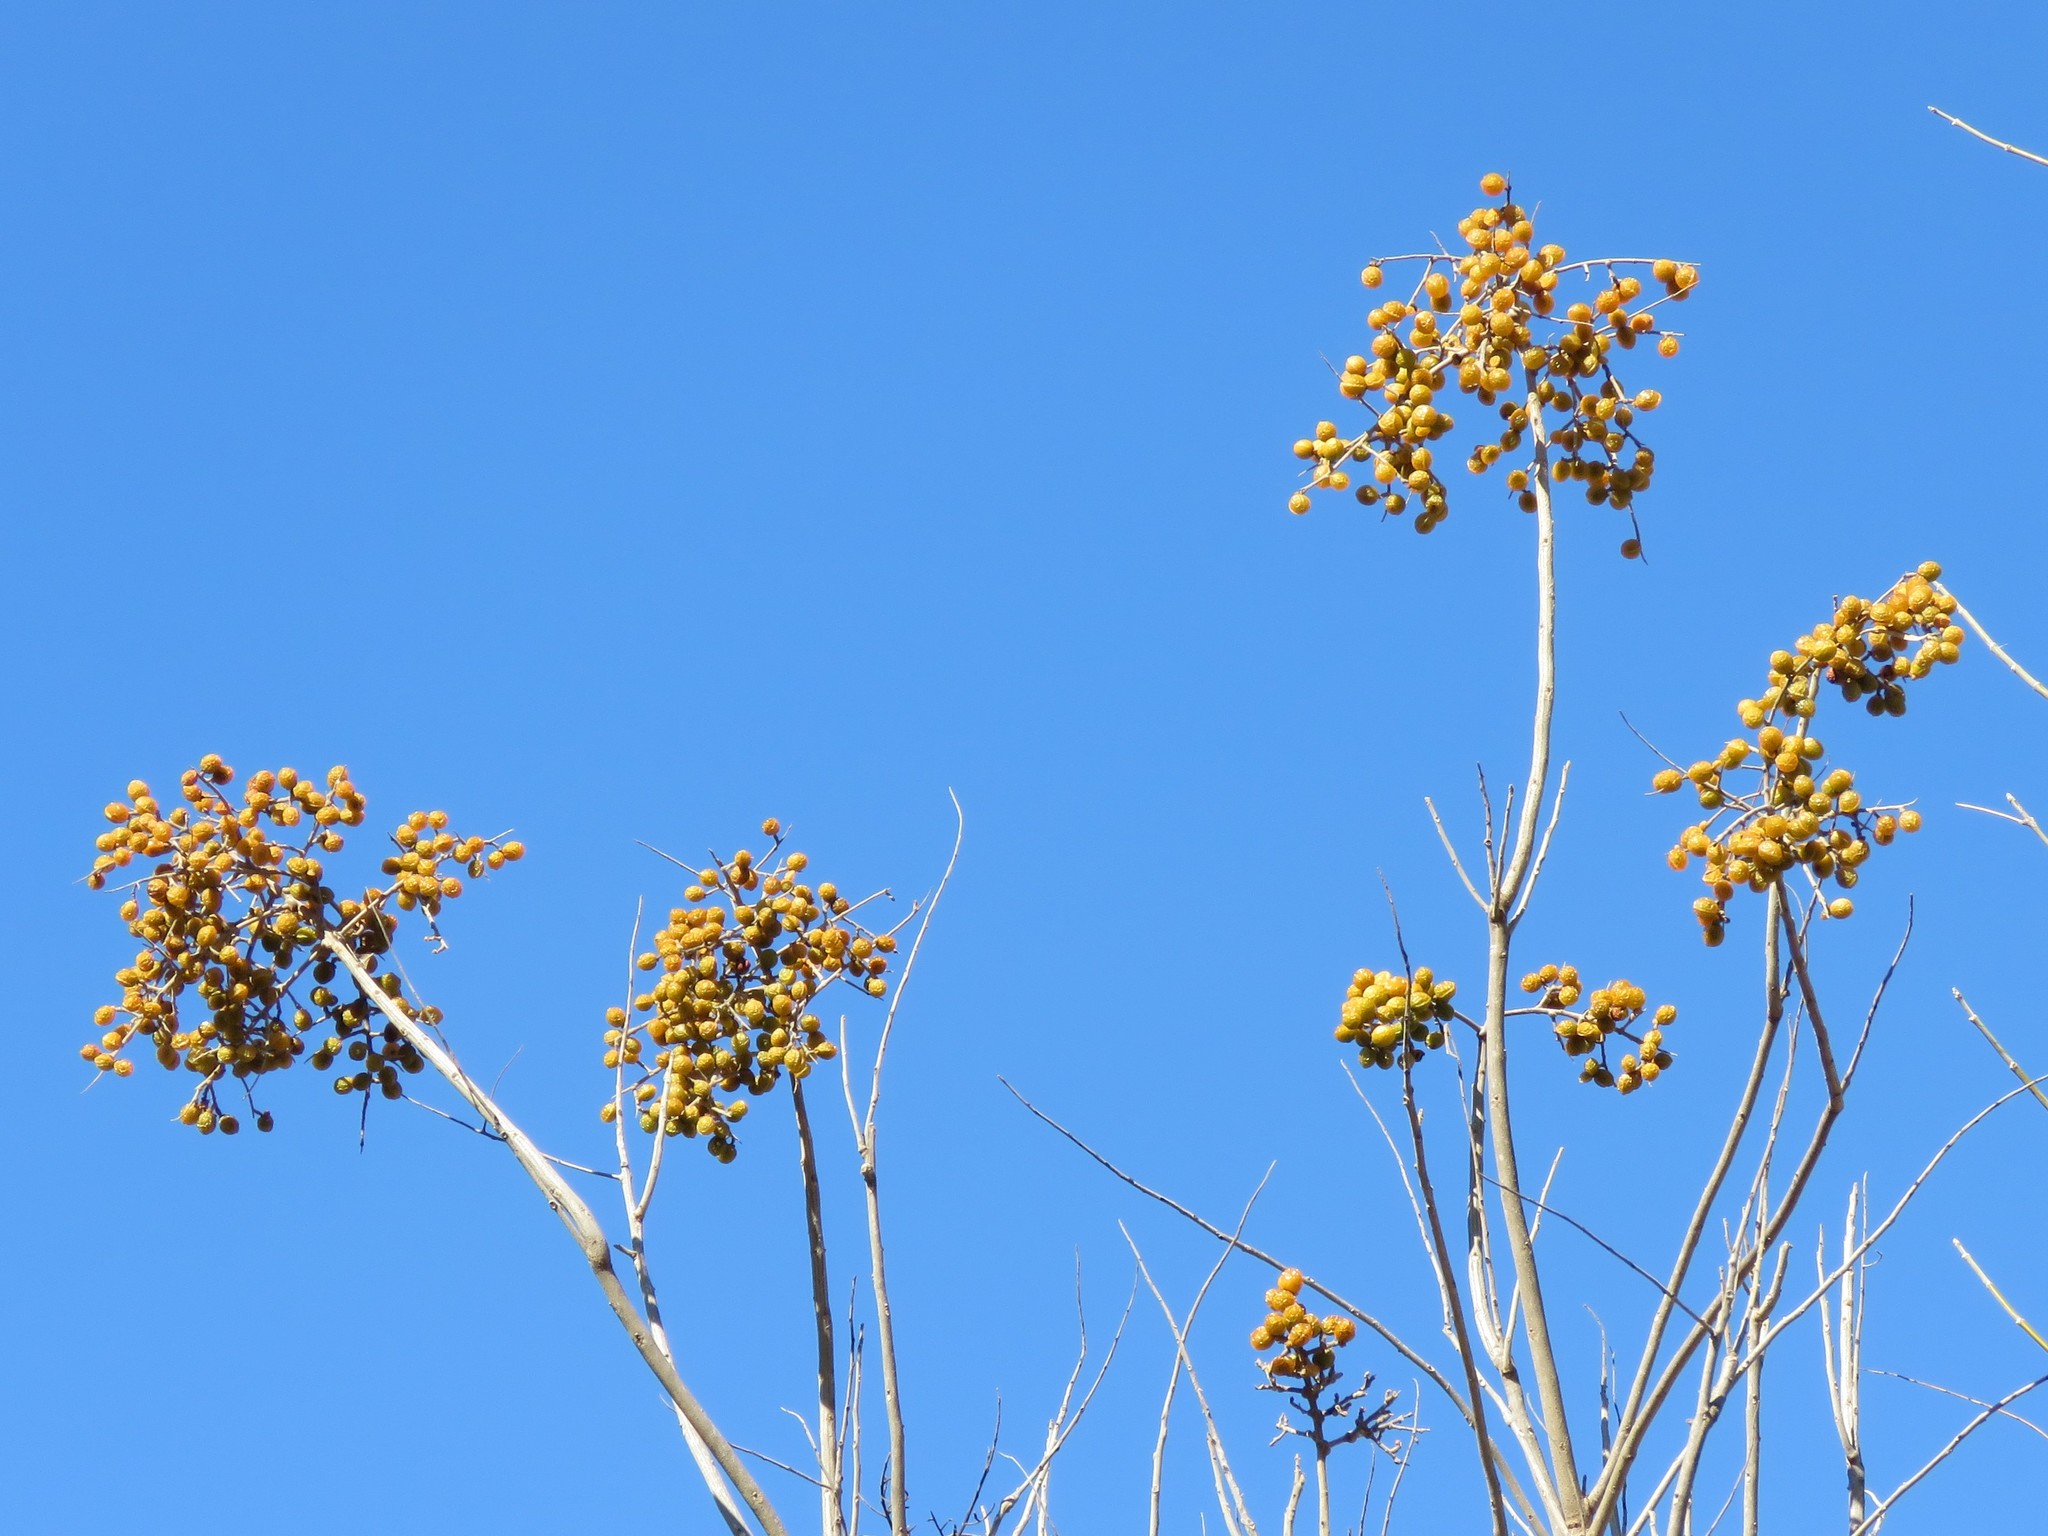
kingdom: Plantae
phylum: Tracheophyta
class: Magnoliopsida
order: Sapindales
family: Meliaceae
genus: Melia
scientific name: Melia azedarach
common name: Chinaberrytree
